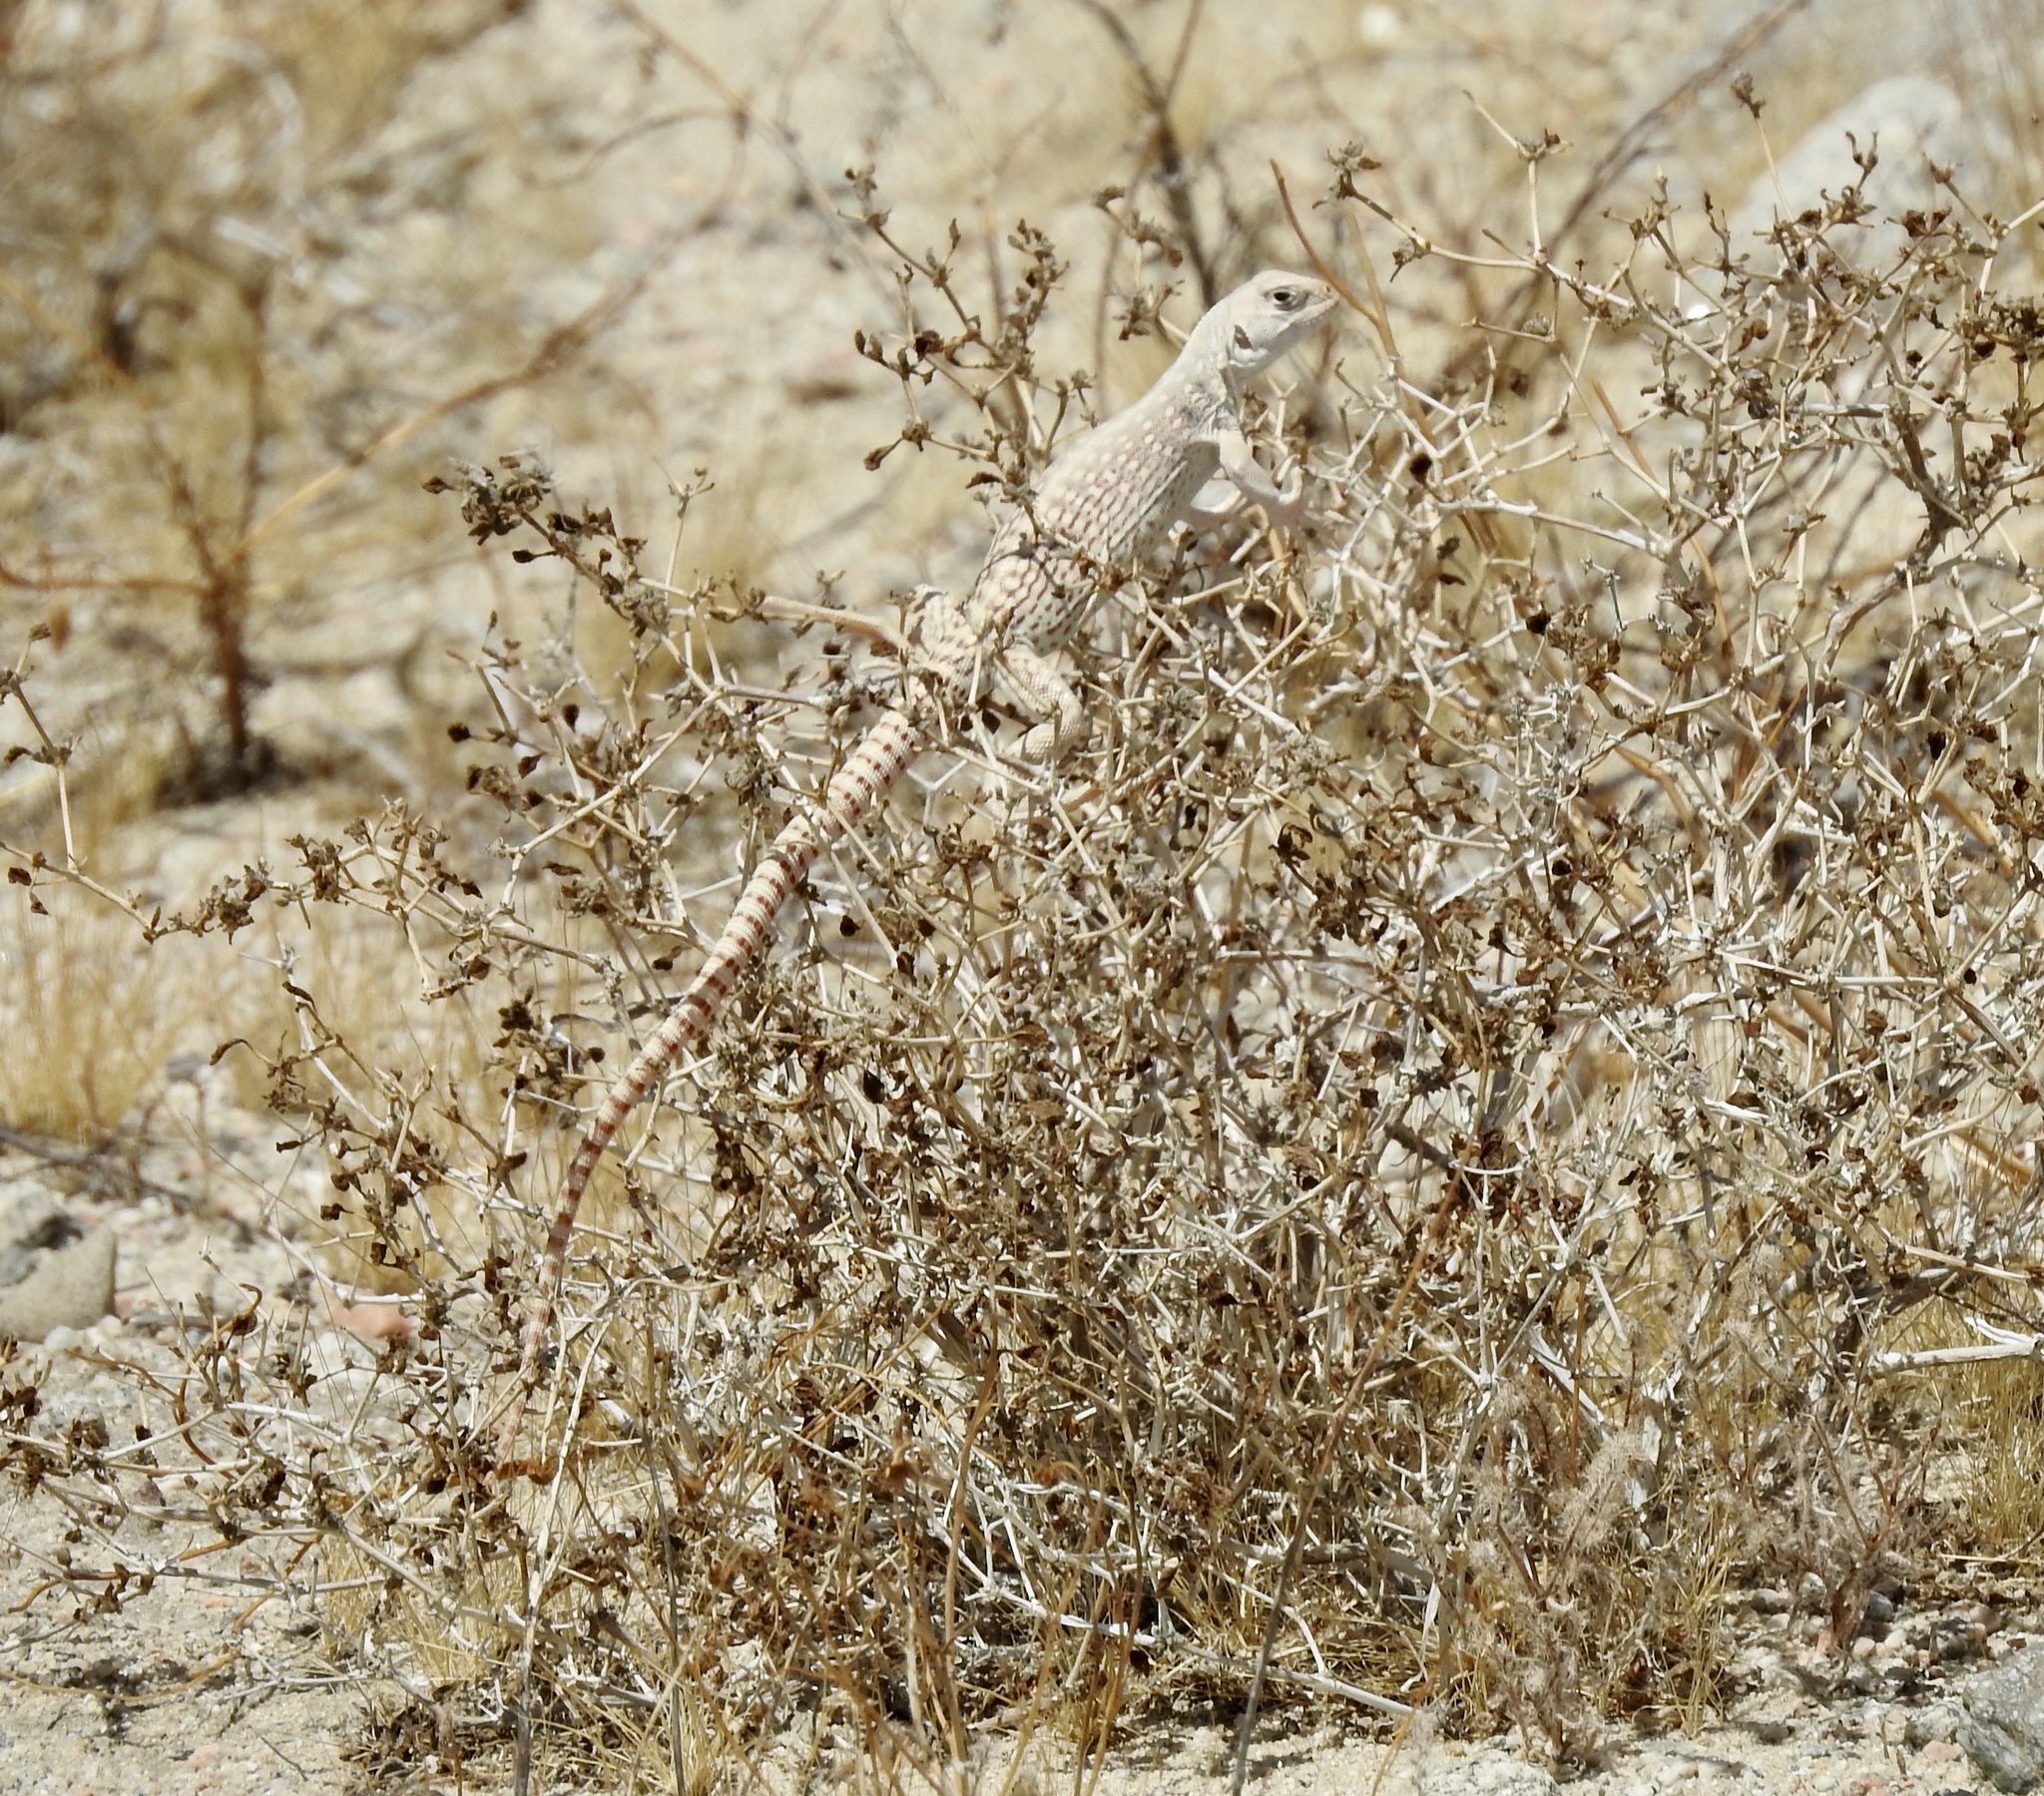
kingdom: Animalia
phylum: Chordata
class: Squamata
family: Iguanidae
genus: Dipsosaurus
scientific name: Dipsosaurus dorsalis
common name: Desert iguana
